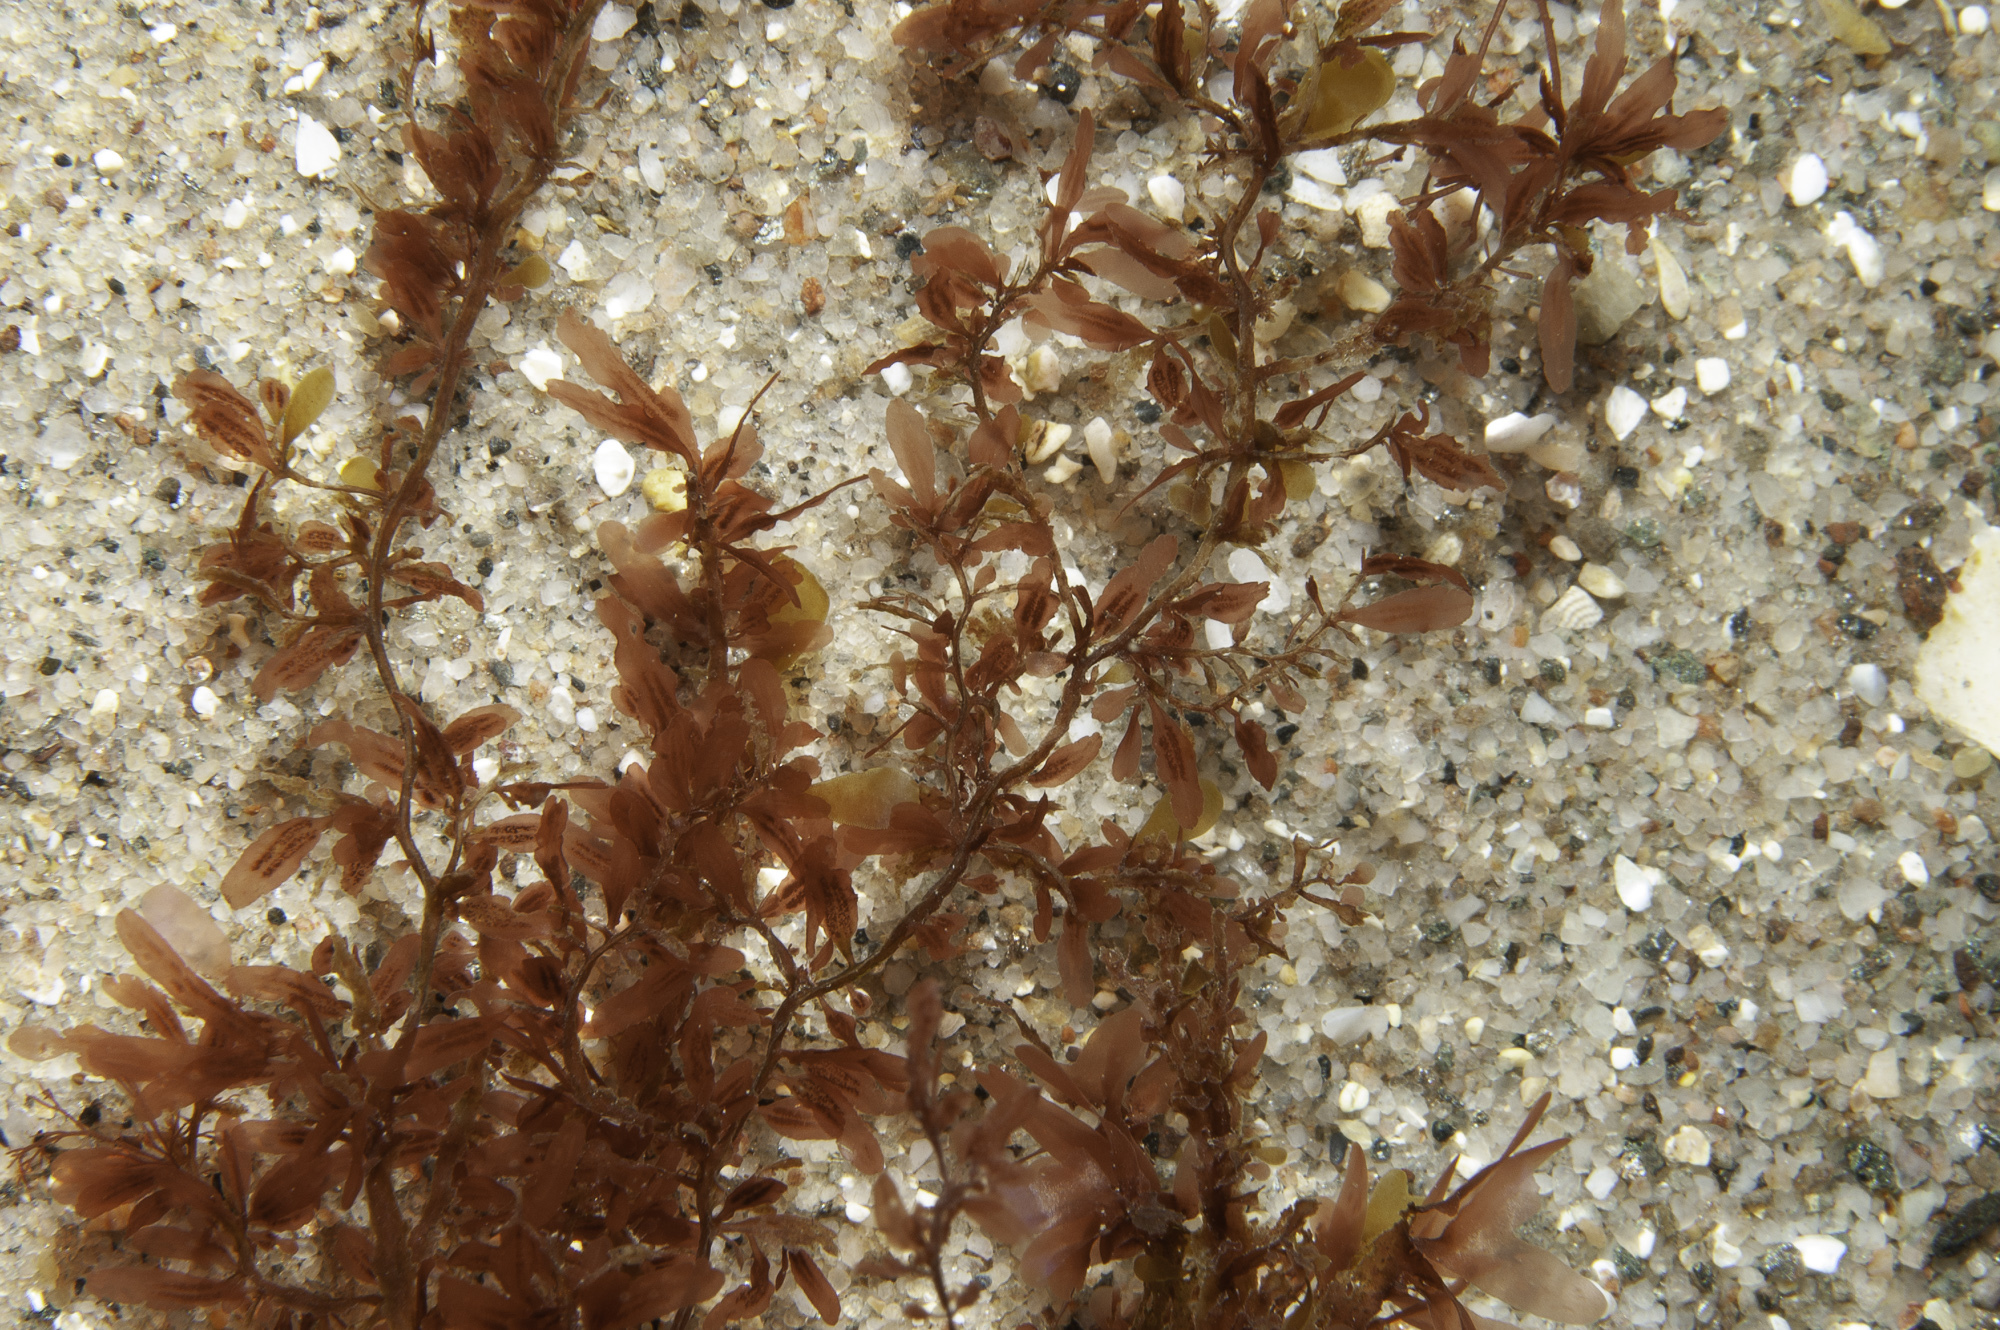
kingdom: Plantae
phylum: Rhodophyta
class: Florideophyceae
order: Ceramiales
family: Delesseriaceae
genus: Hypoglossum
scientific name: Hypoglossum hypoglossoides
